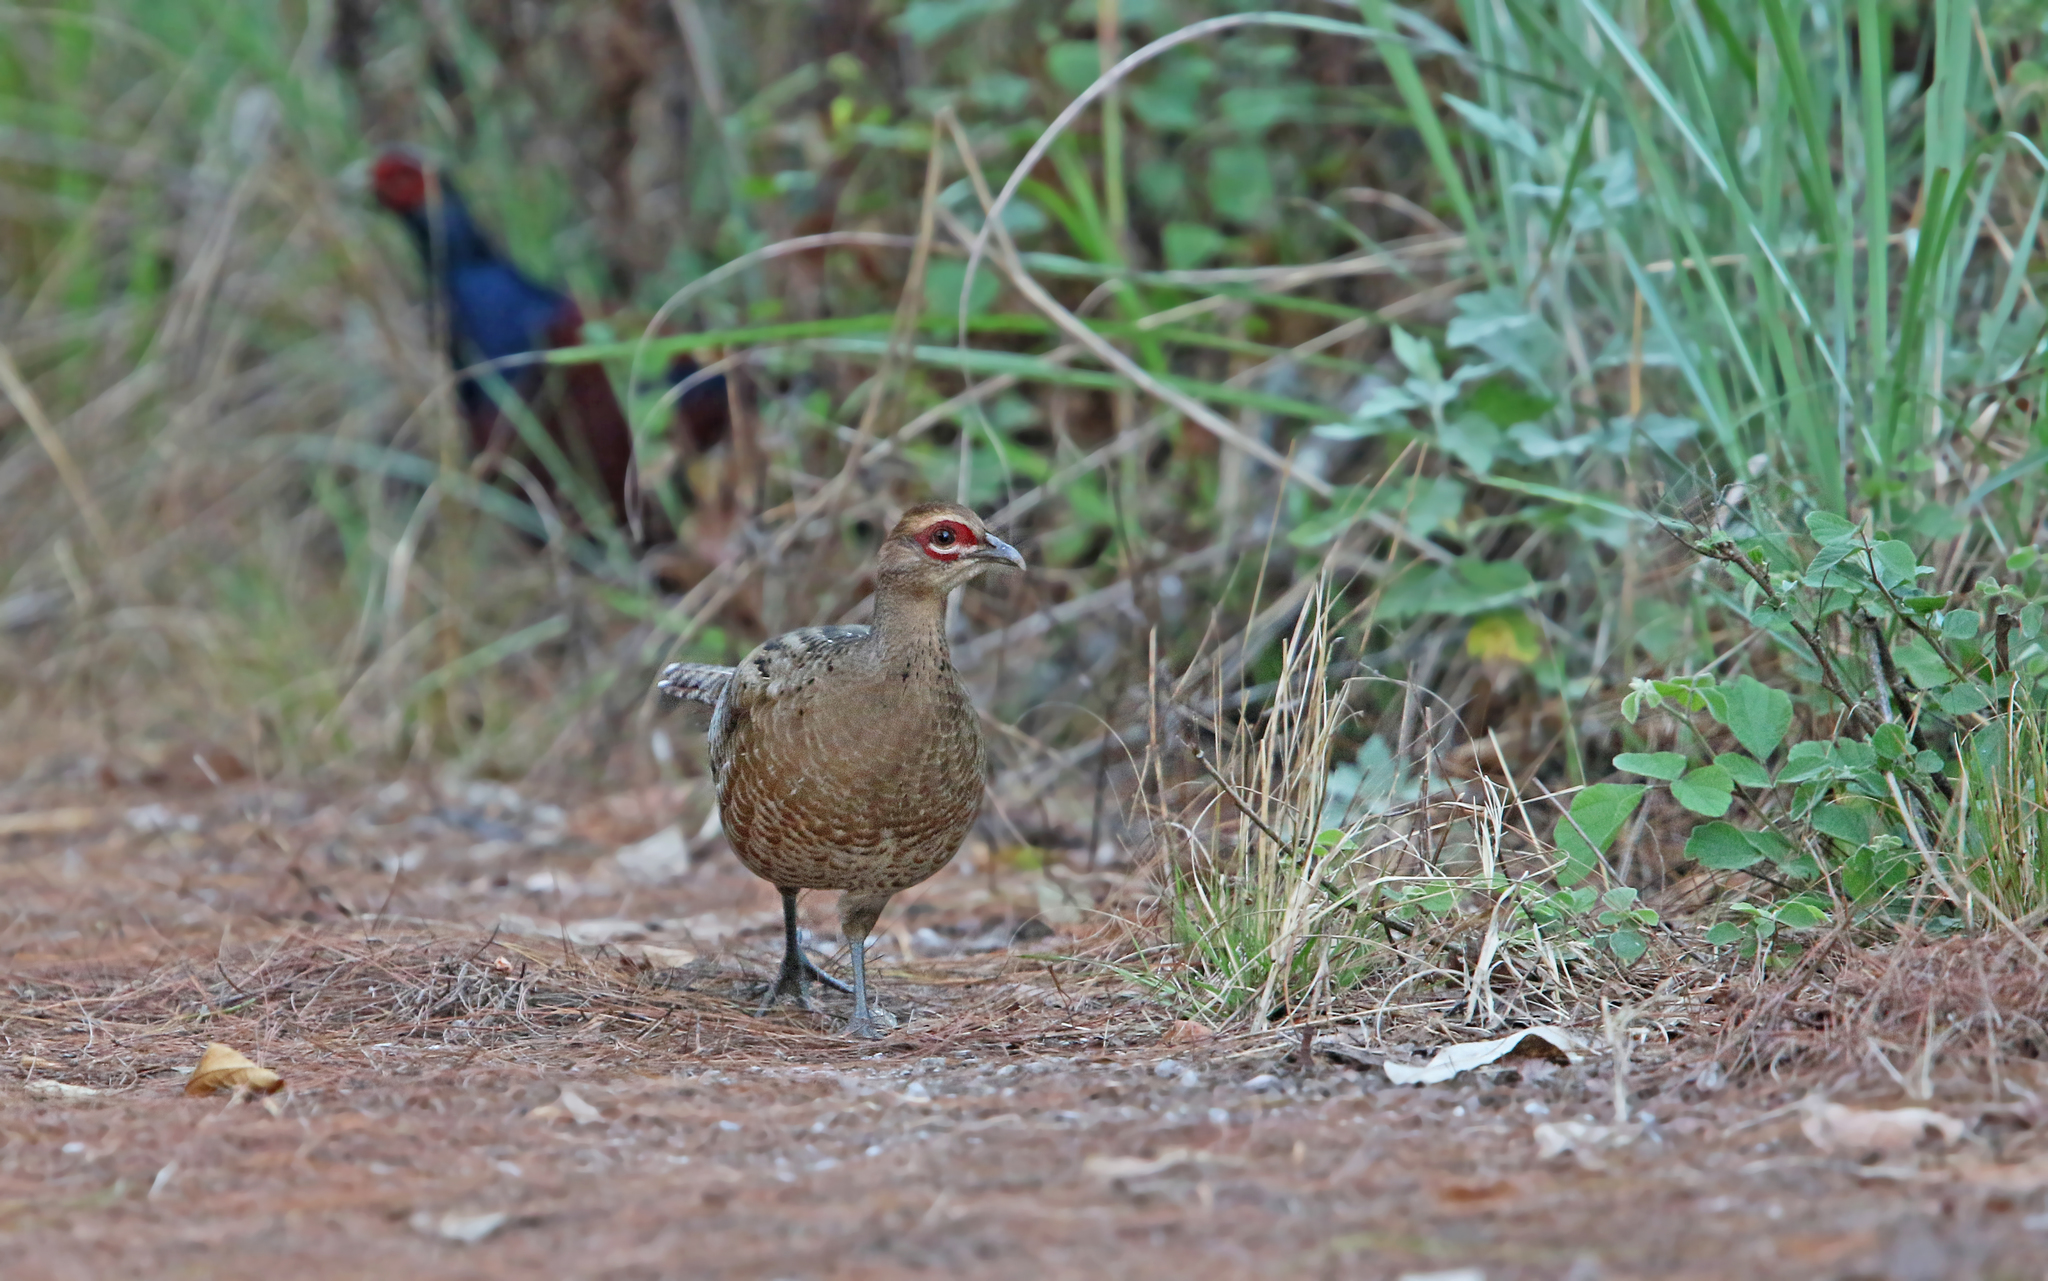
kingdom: Animalia
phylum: Chordata
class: Aves
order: Galliformes
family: Phasianidae
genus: Syrmaticus
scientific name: Syrmaticus humiae
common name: Mrs. hume's pheasant
